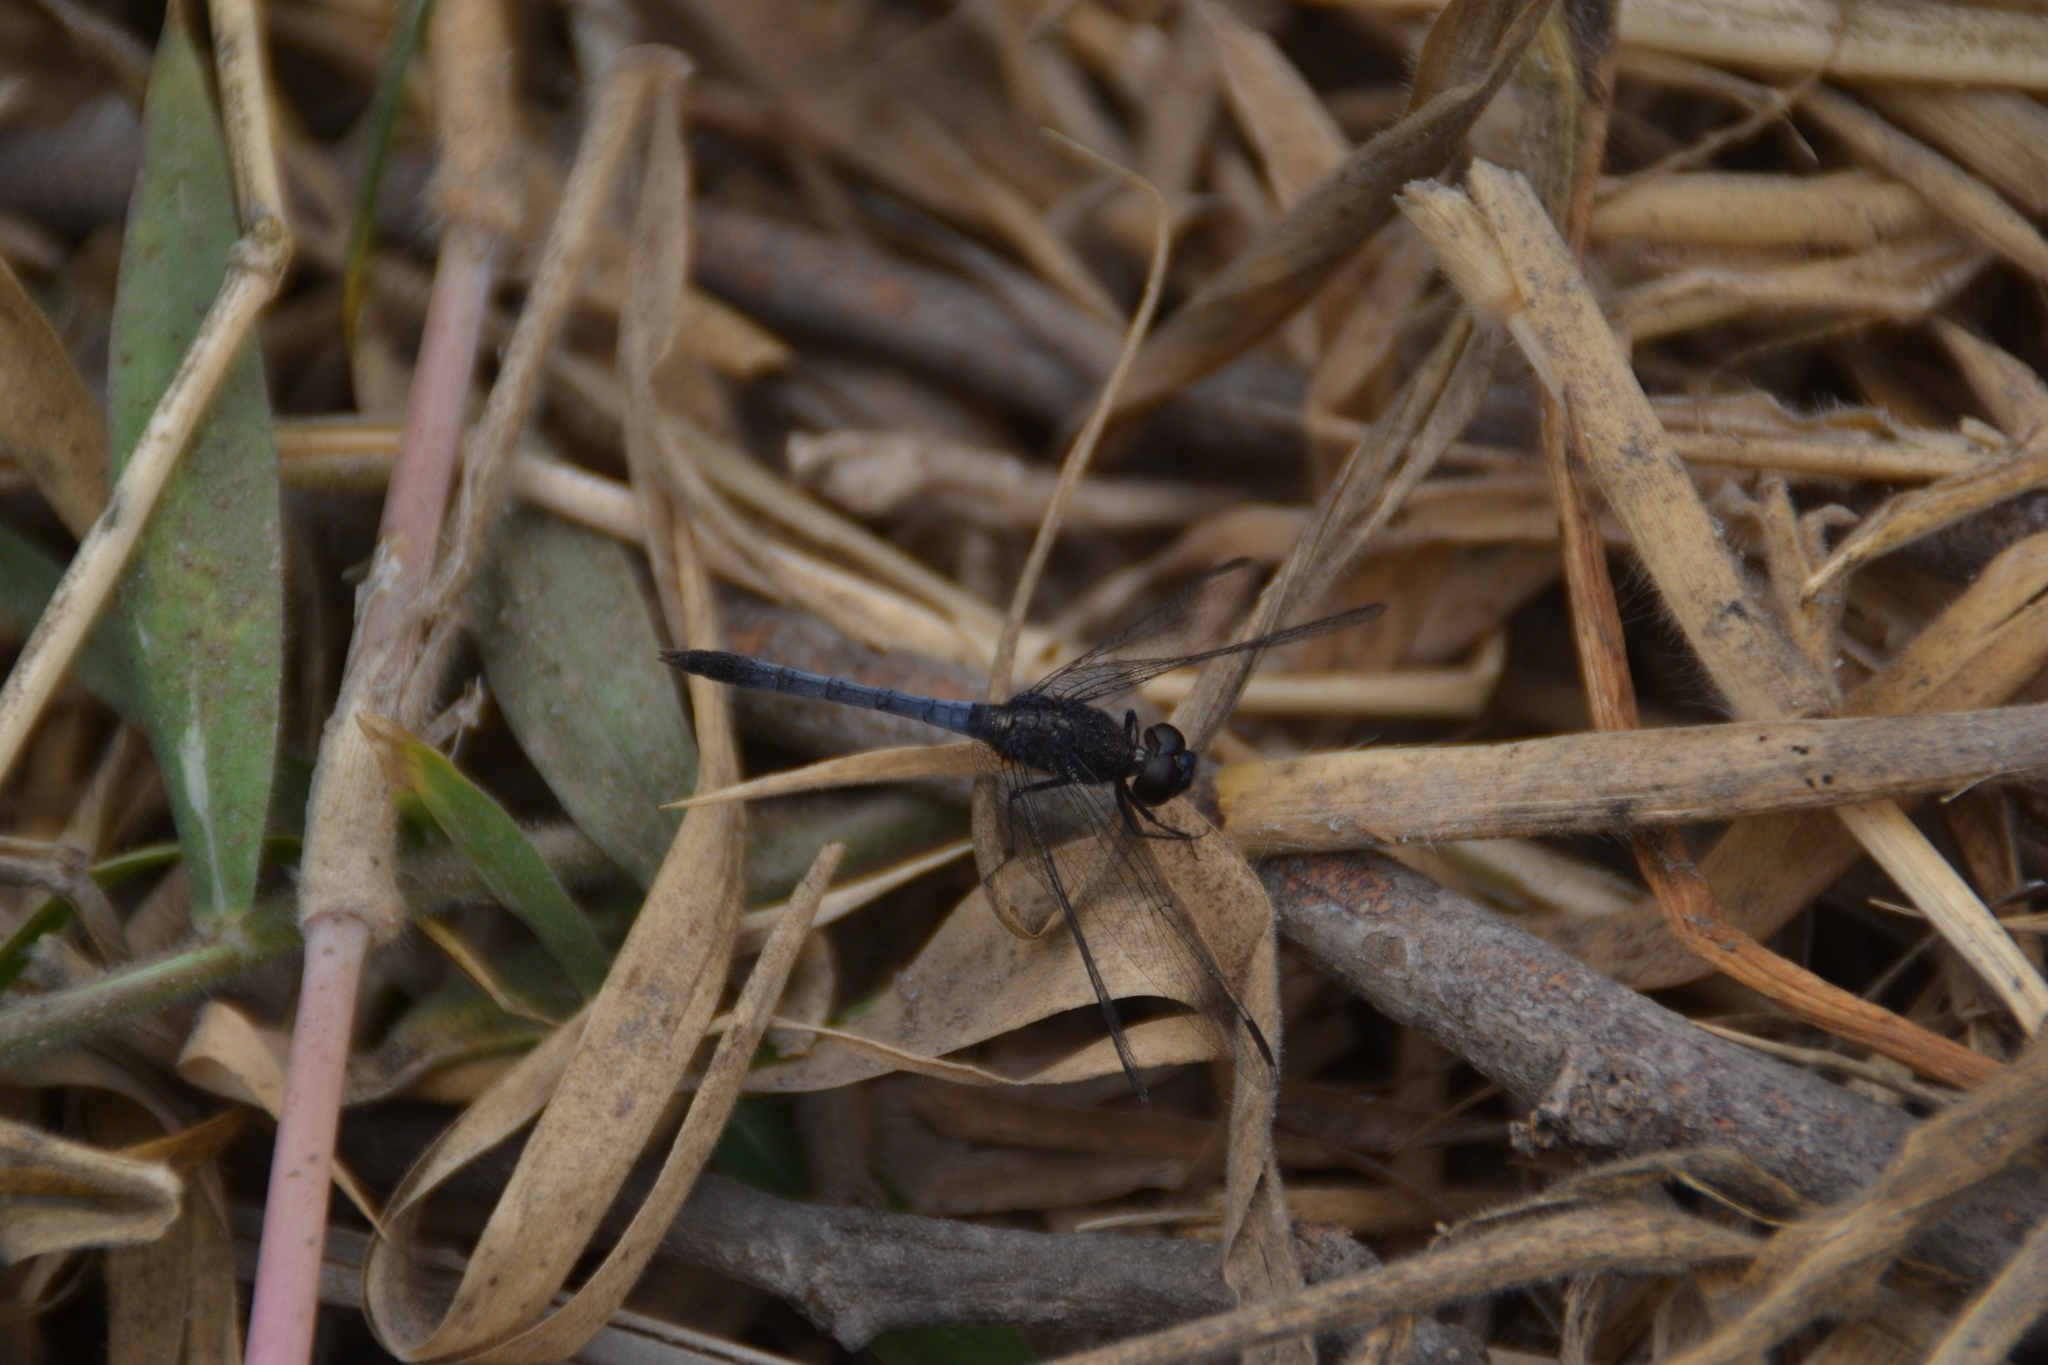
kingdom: Animalia
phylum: Arthropoda
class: Insecta
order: Odonata
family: Libellulidae
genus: Erythrodiplax
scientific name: Erythrodiplax cleopatra
